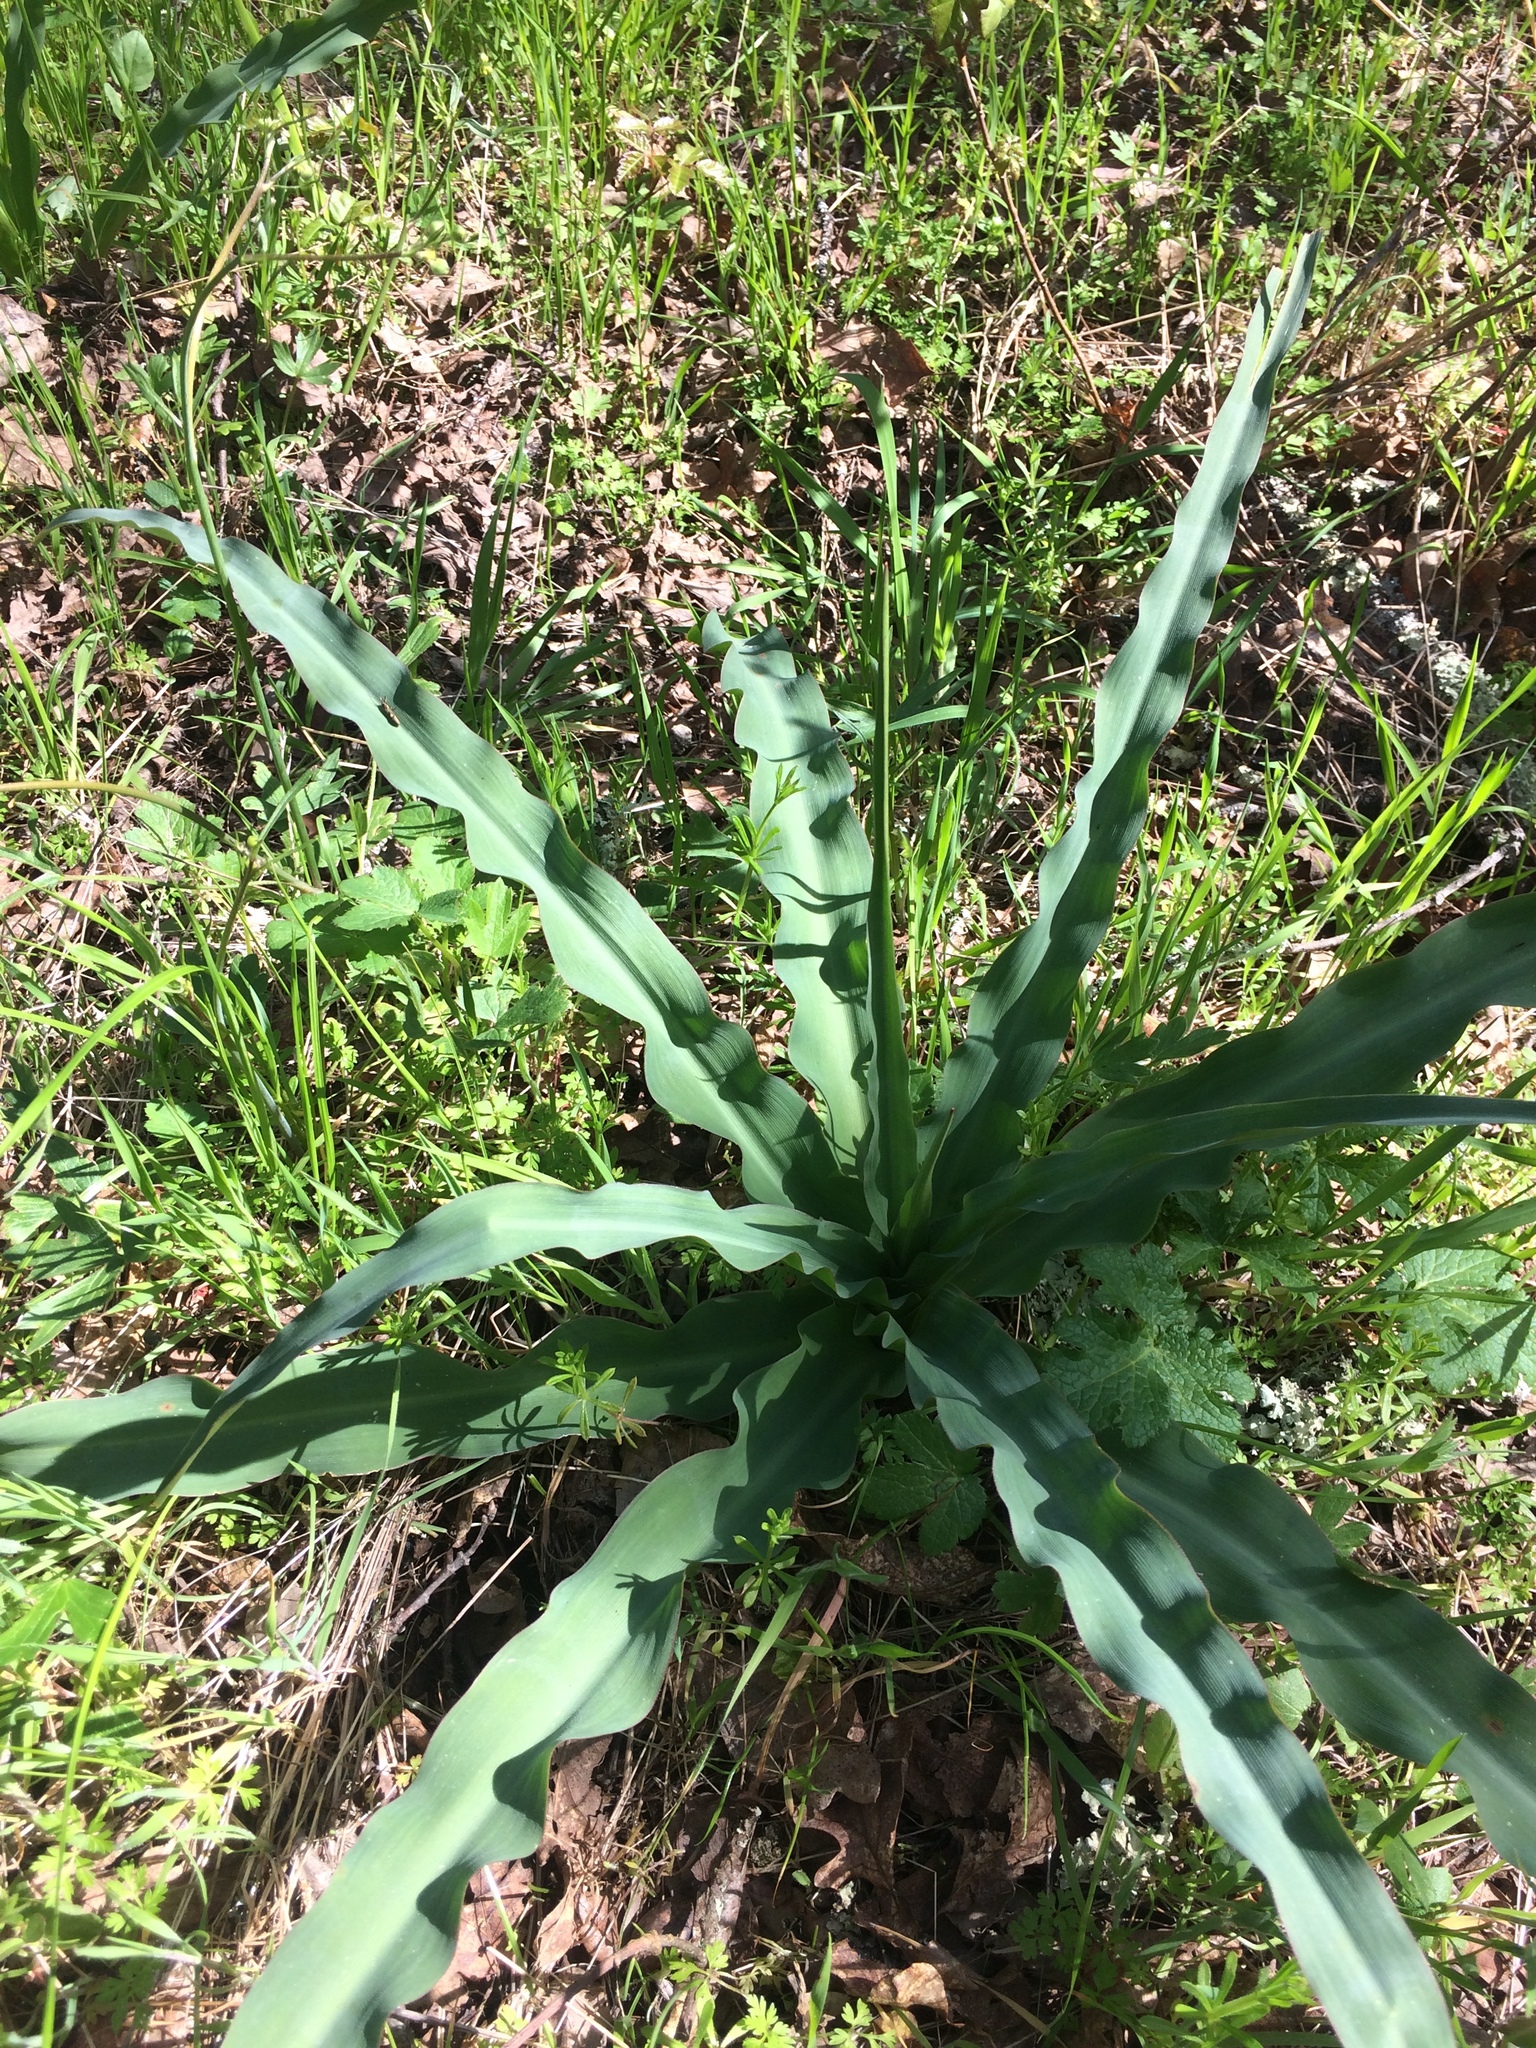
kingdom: Plantae
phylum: Tracheophyta
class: Liliopsida
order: Asparagales
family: Asparagaceae
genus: Chlorogalum
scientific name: Chlorogalum pomeridianum
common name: Amole
